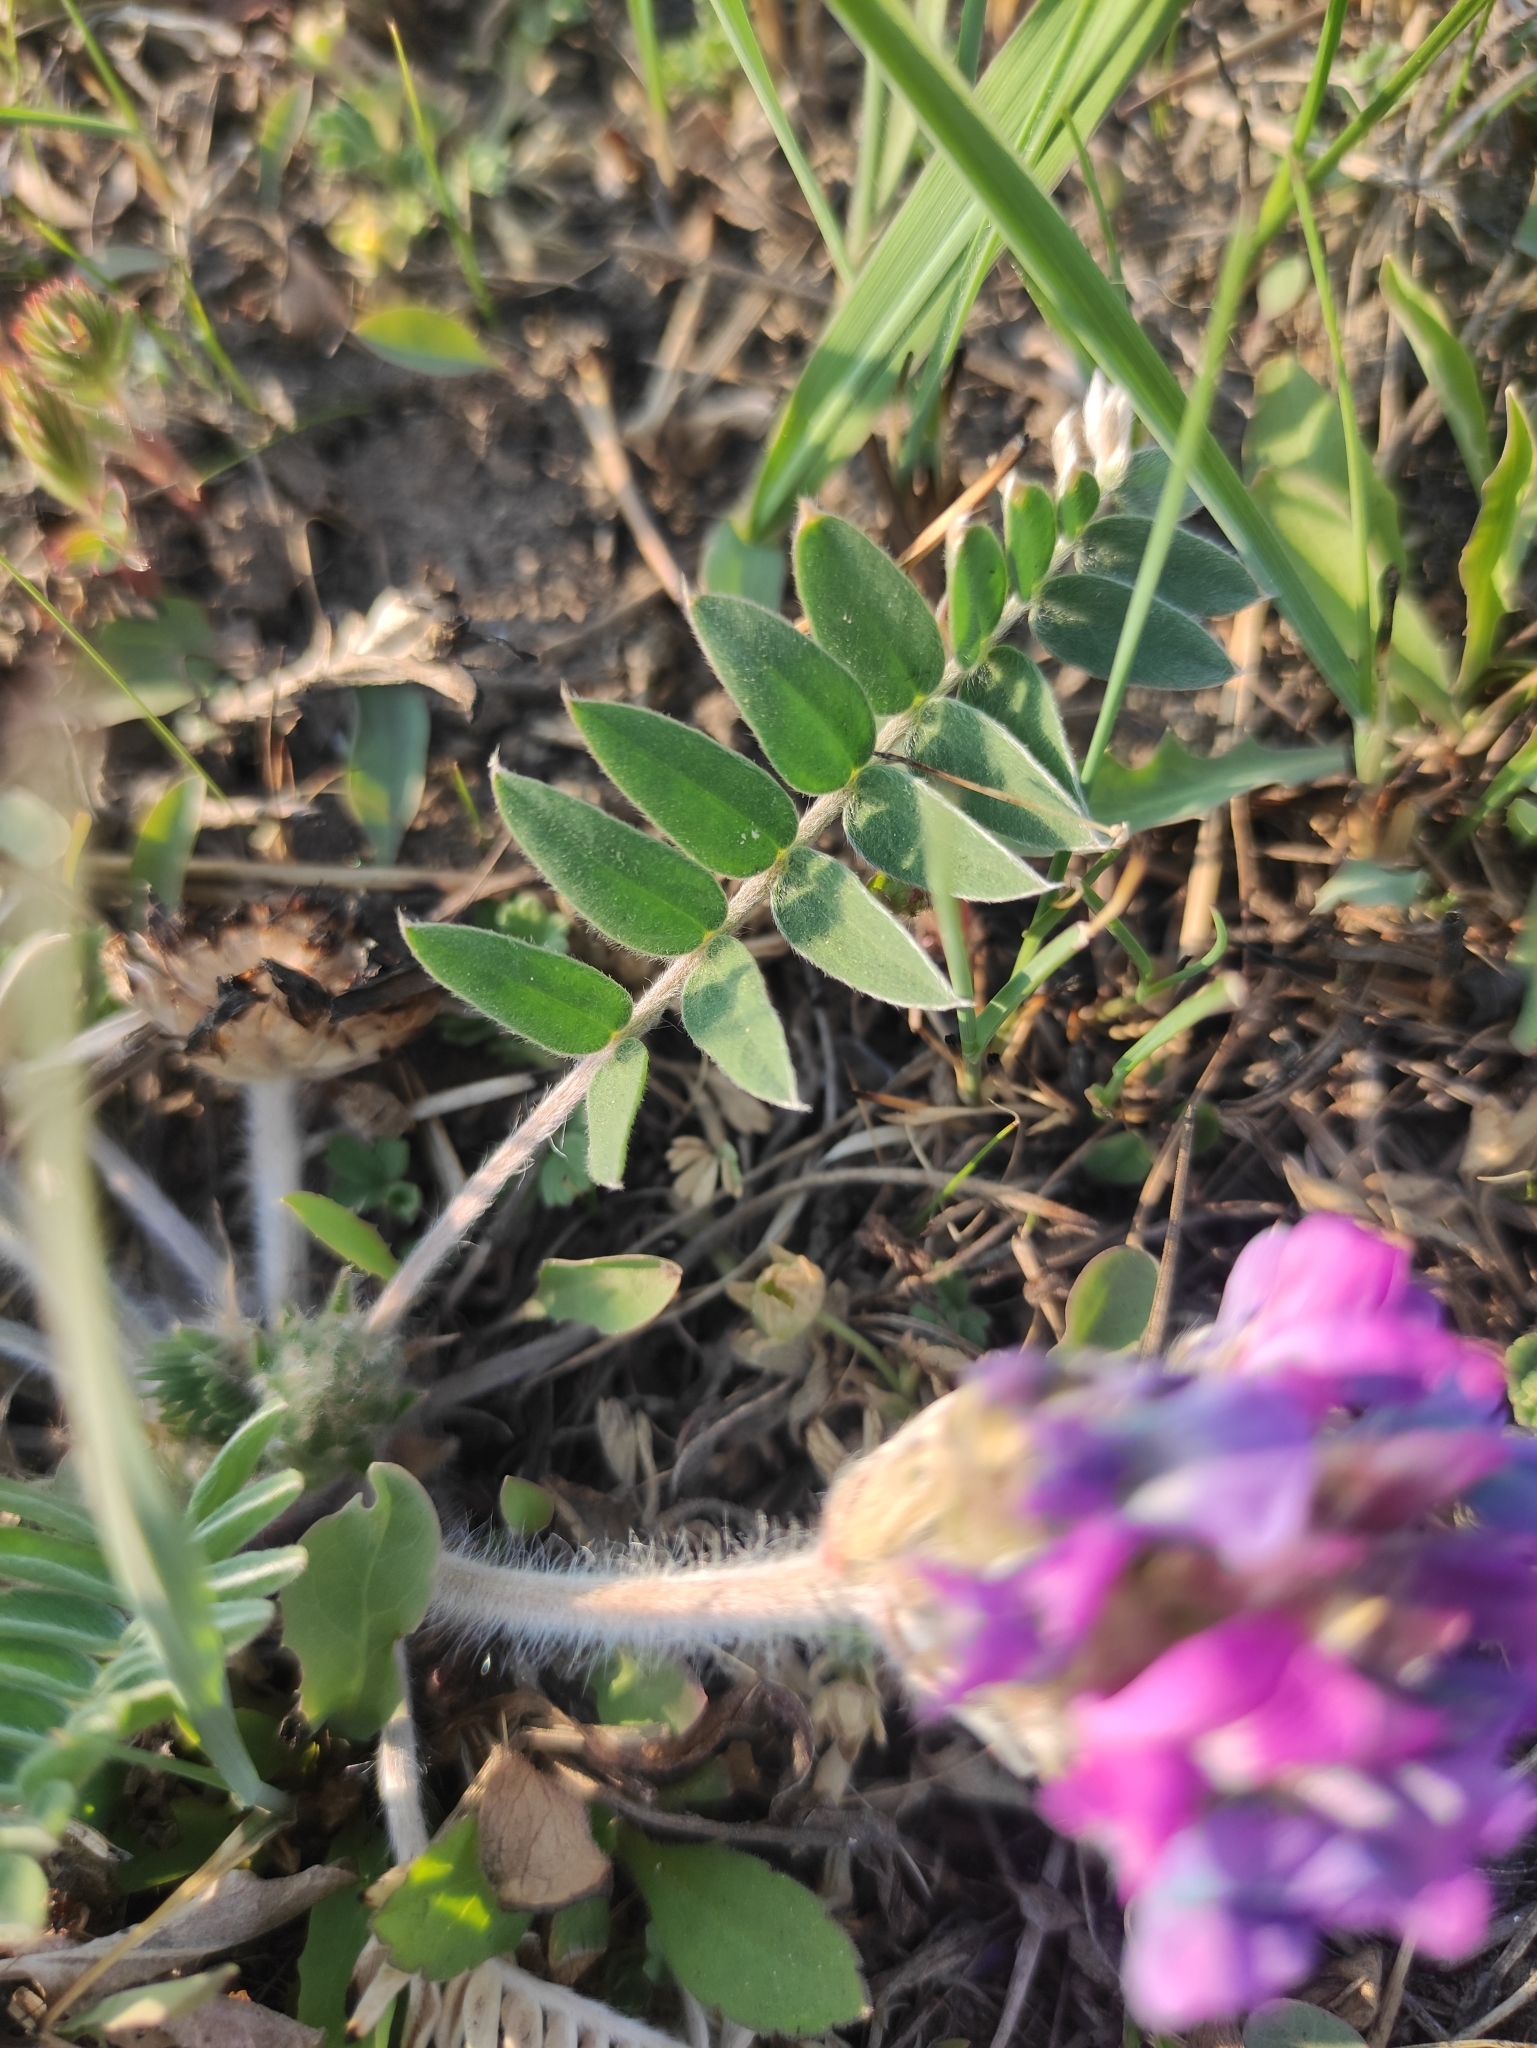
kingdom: Plantae
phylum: Tracheophyta
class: Magnoliopsida
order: Fabales
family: Fabaceae
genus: Oxytropis
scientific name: Oxytropis strobilacea
